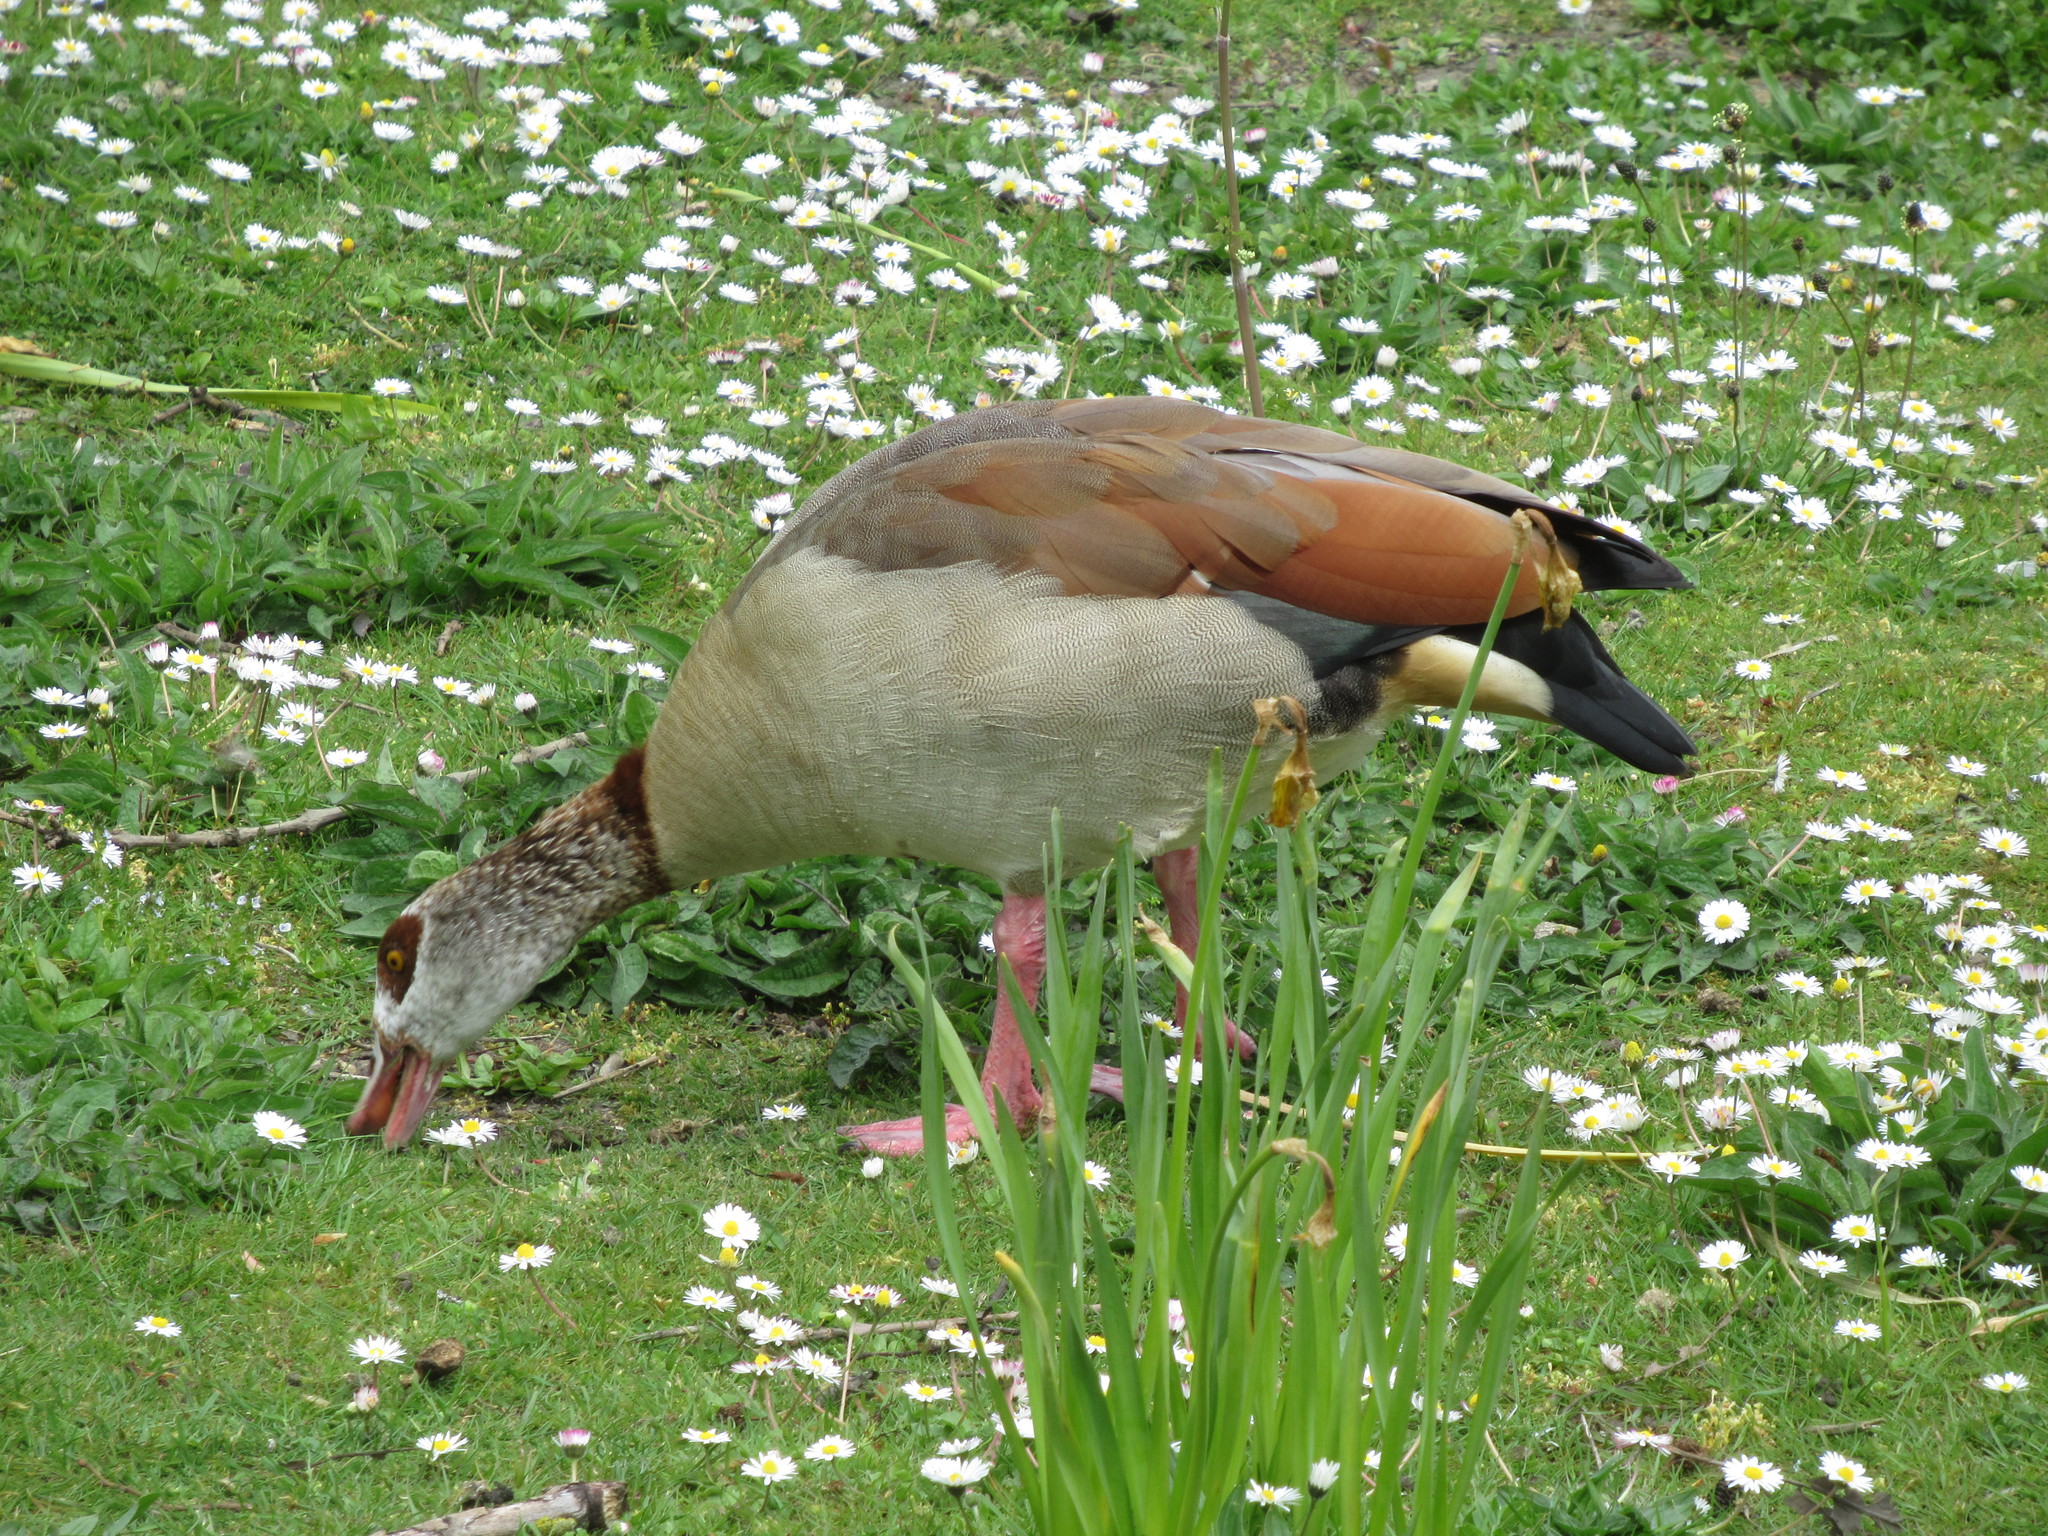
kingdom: Animalia
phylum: Chordata
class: Aves
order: Anseriformes
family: Anatidae
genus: Alopochen
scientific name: Alopochen aegyptiaca
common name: Egyptian goose
